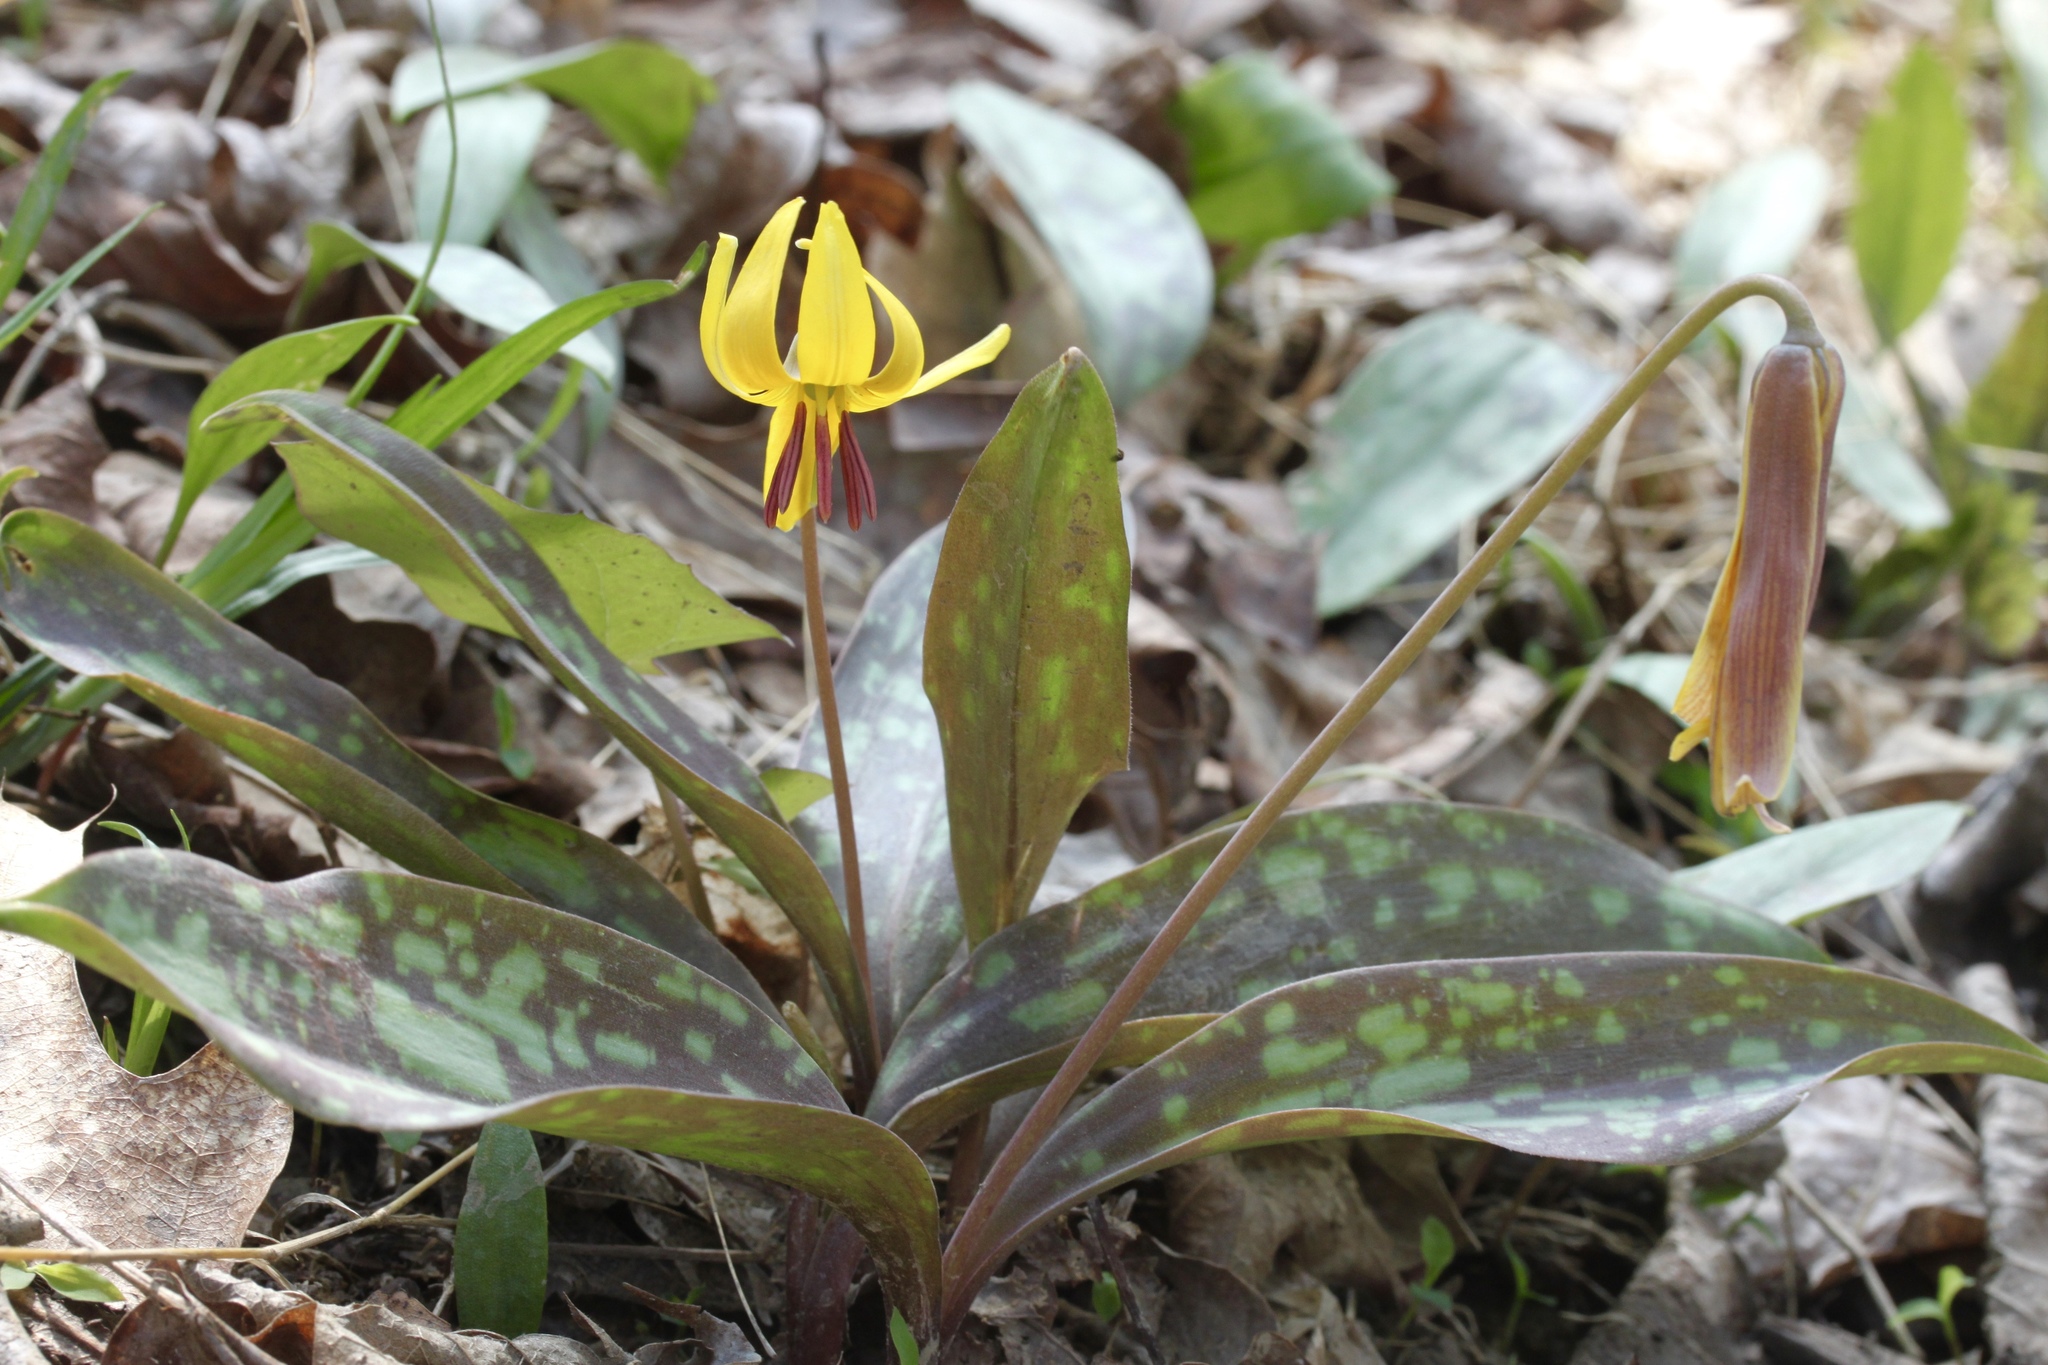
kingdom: Plantae
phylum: Tracheophyta
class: Liliopsida
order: Liliales
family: Liliaceae
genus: Erythronium
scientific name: Erythronium americanum
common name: Yellow adder's-tongue
